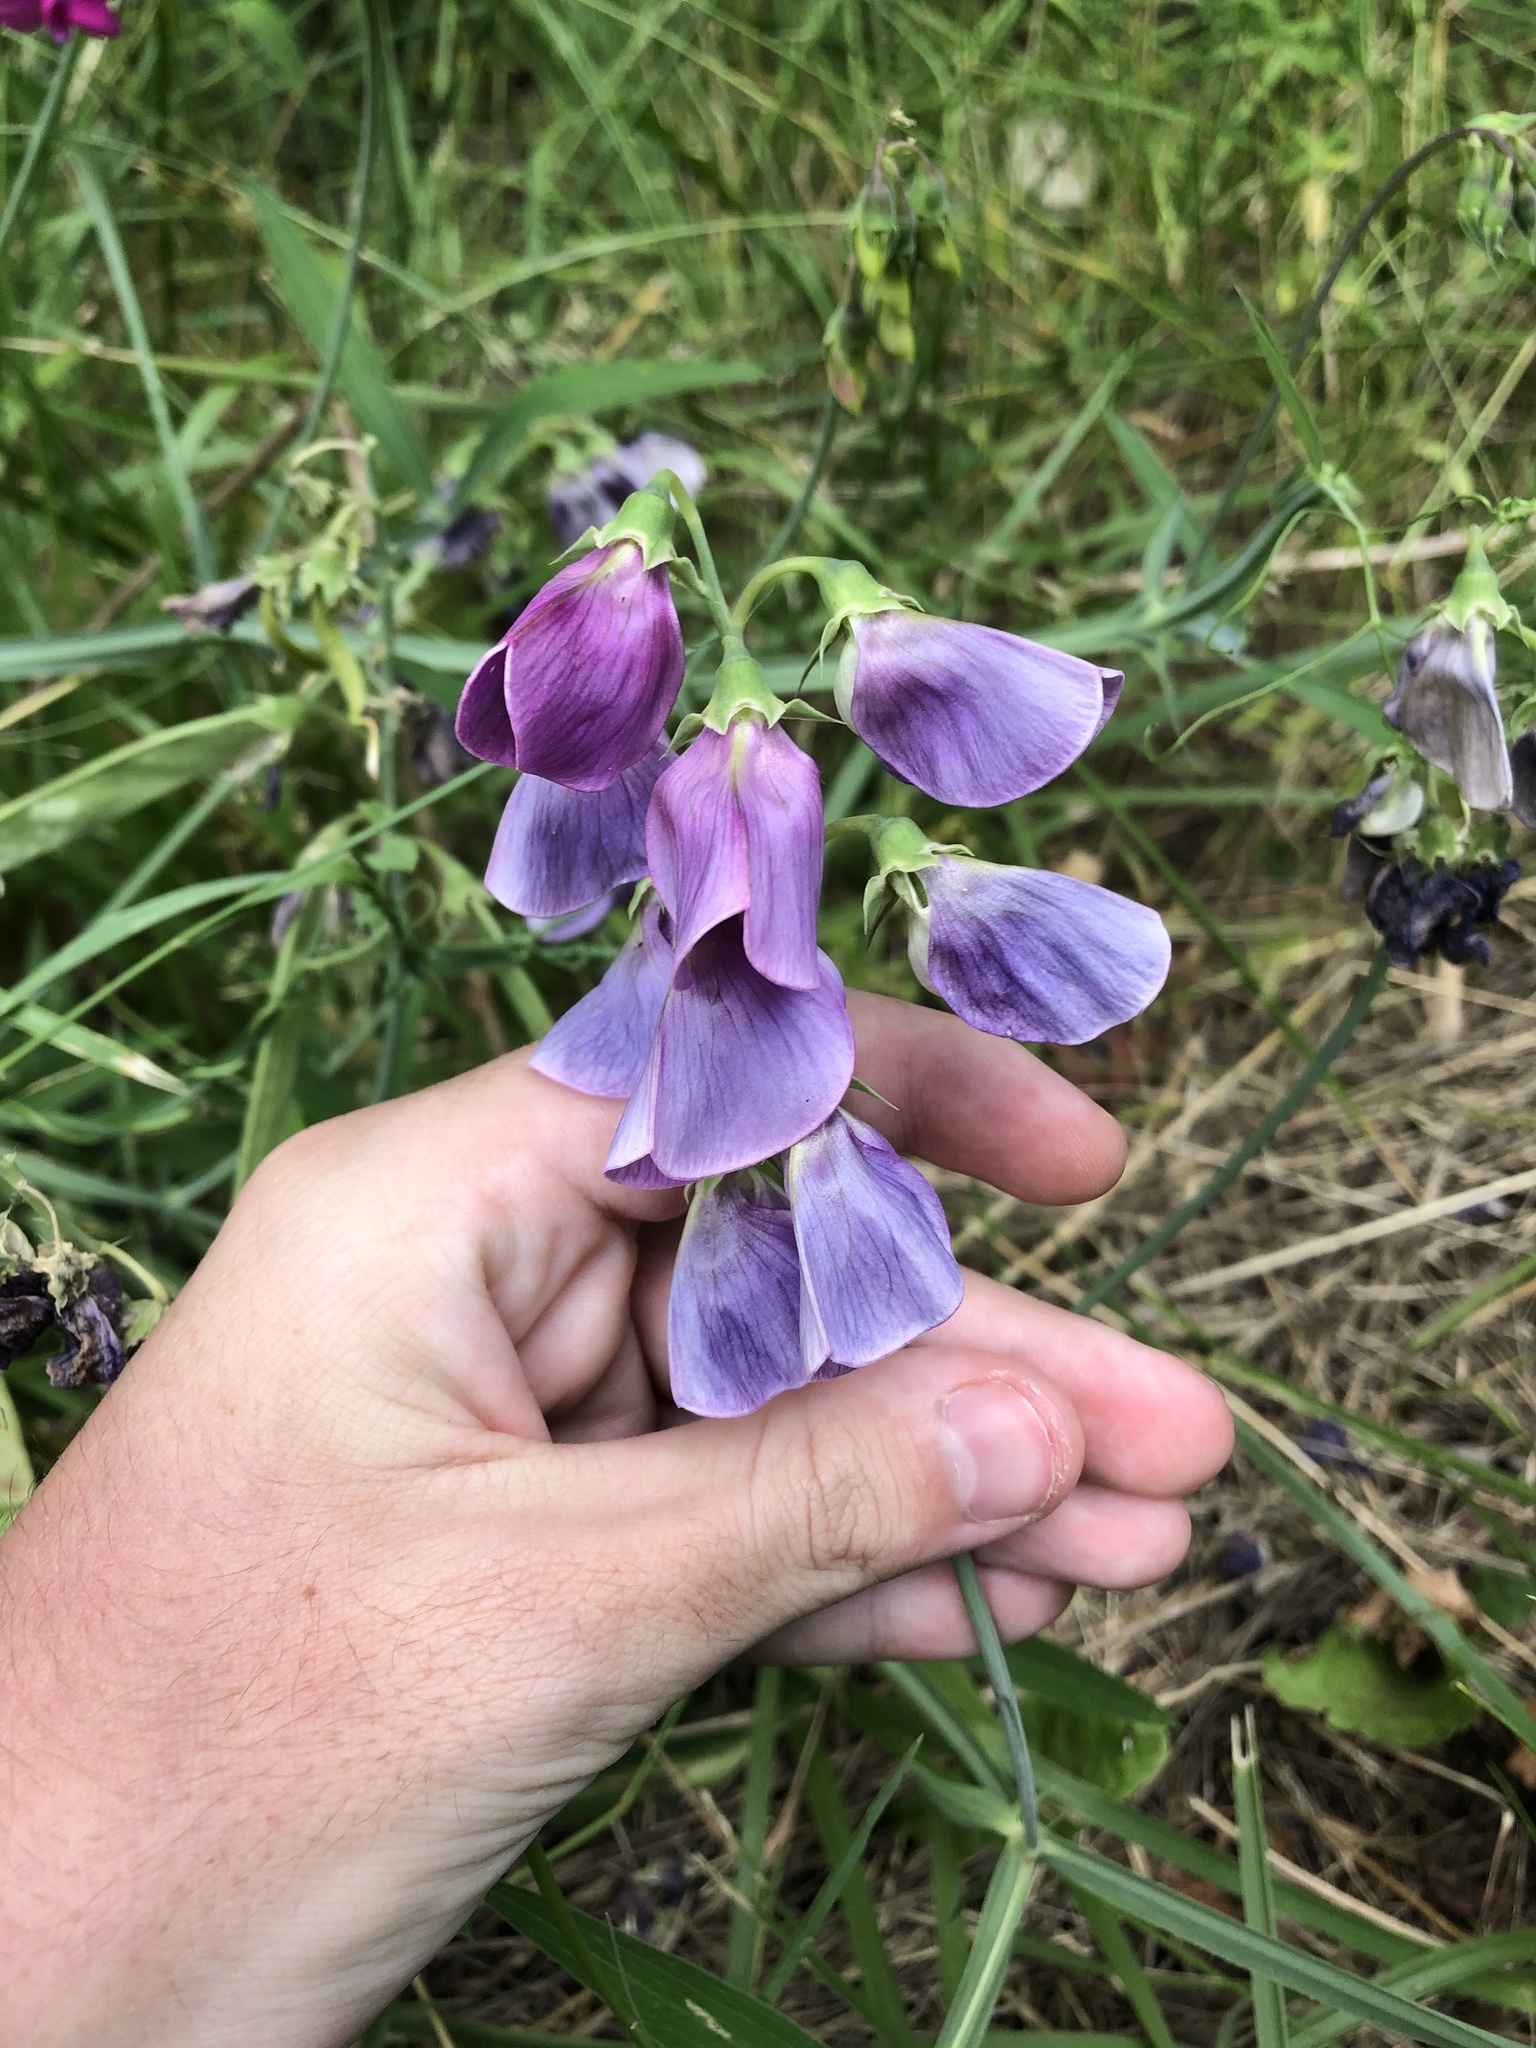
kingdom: Plantae
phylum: Tracheophyta
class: Magnoliopsida
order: Fabales
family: Fabaceae
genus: Lathyrus
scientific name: Lathyrus latifolius
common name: Perennial pea
